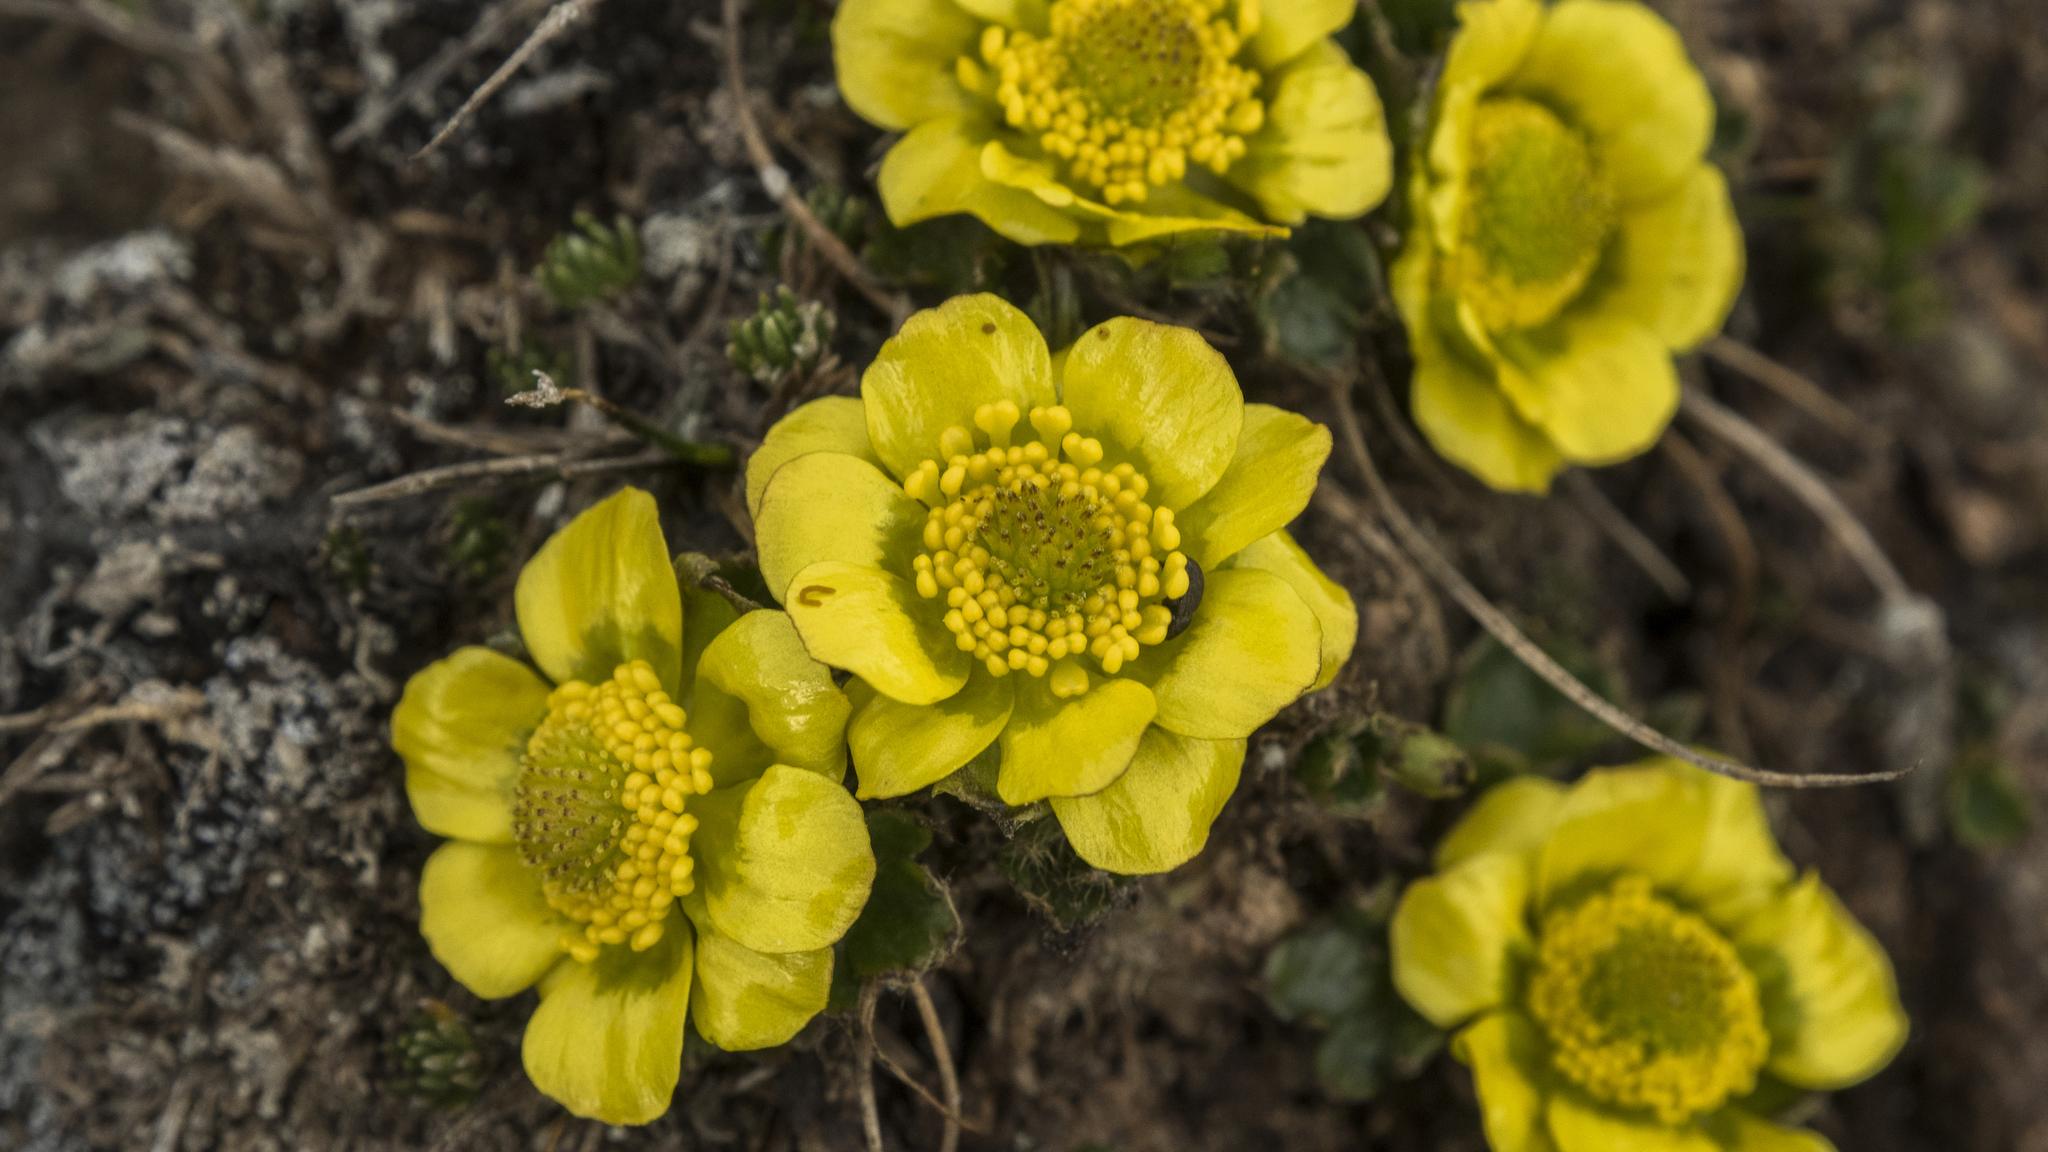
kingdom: Plantae
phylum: Tracheophyta
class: Magnoliopsida
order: Ranunculales
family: Ranunculaceae
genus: Ranunculus
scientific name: Ranunculus pachyrrhizus
